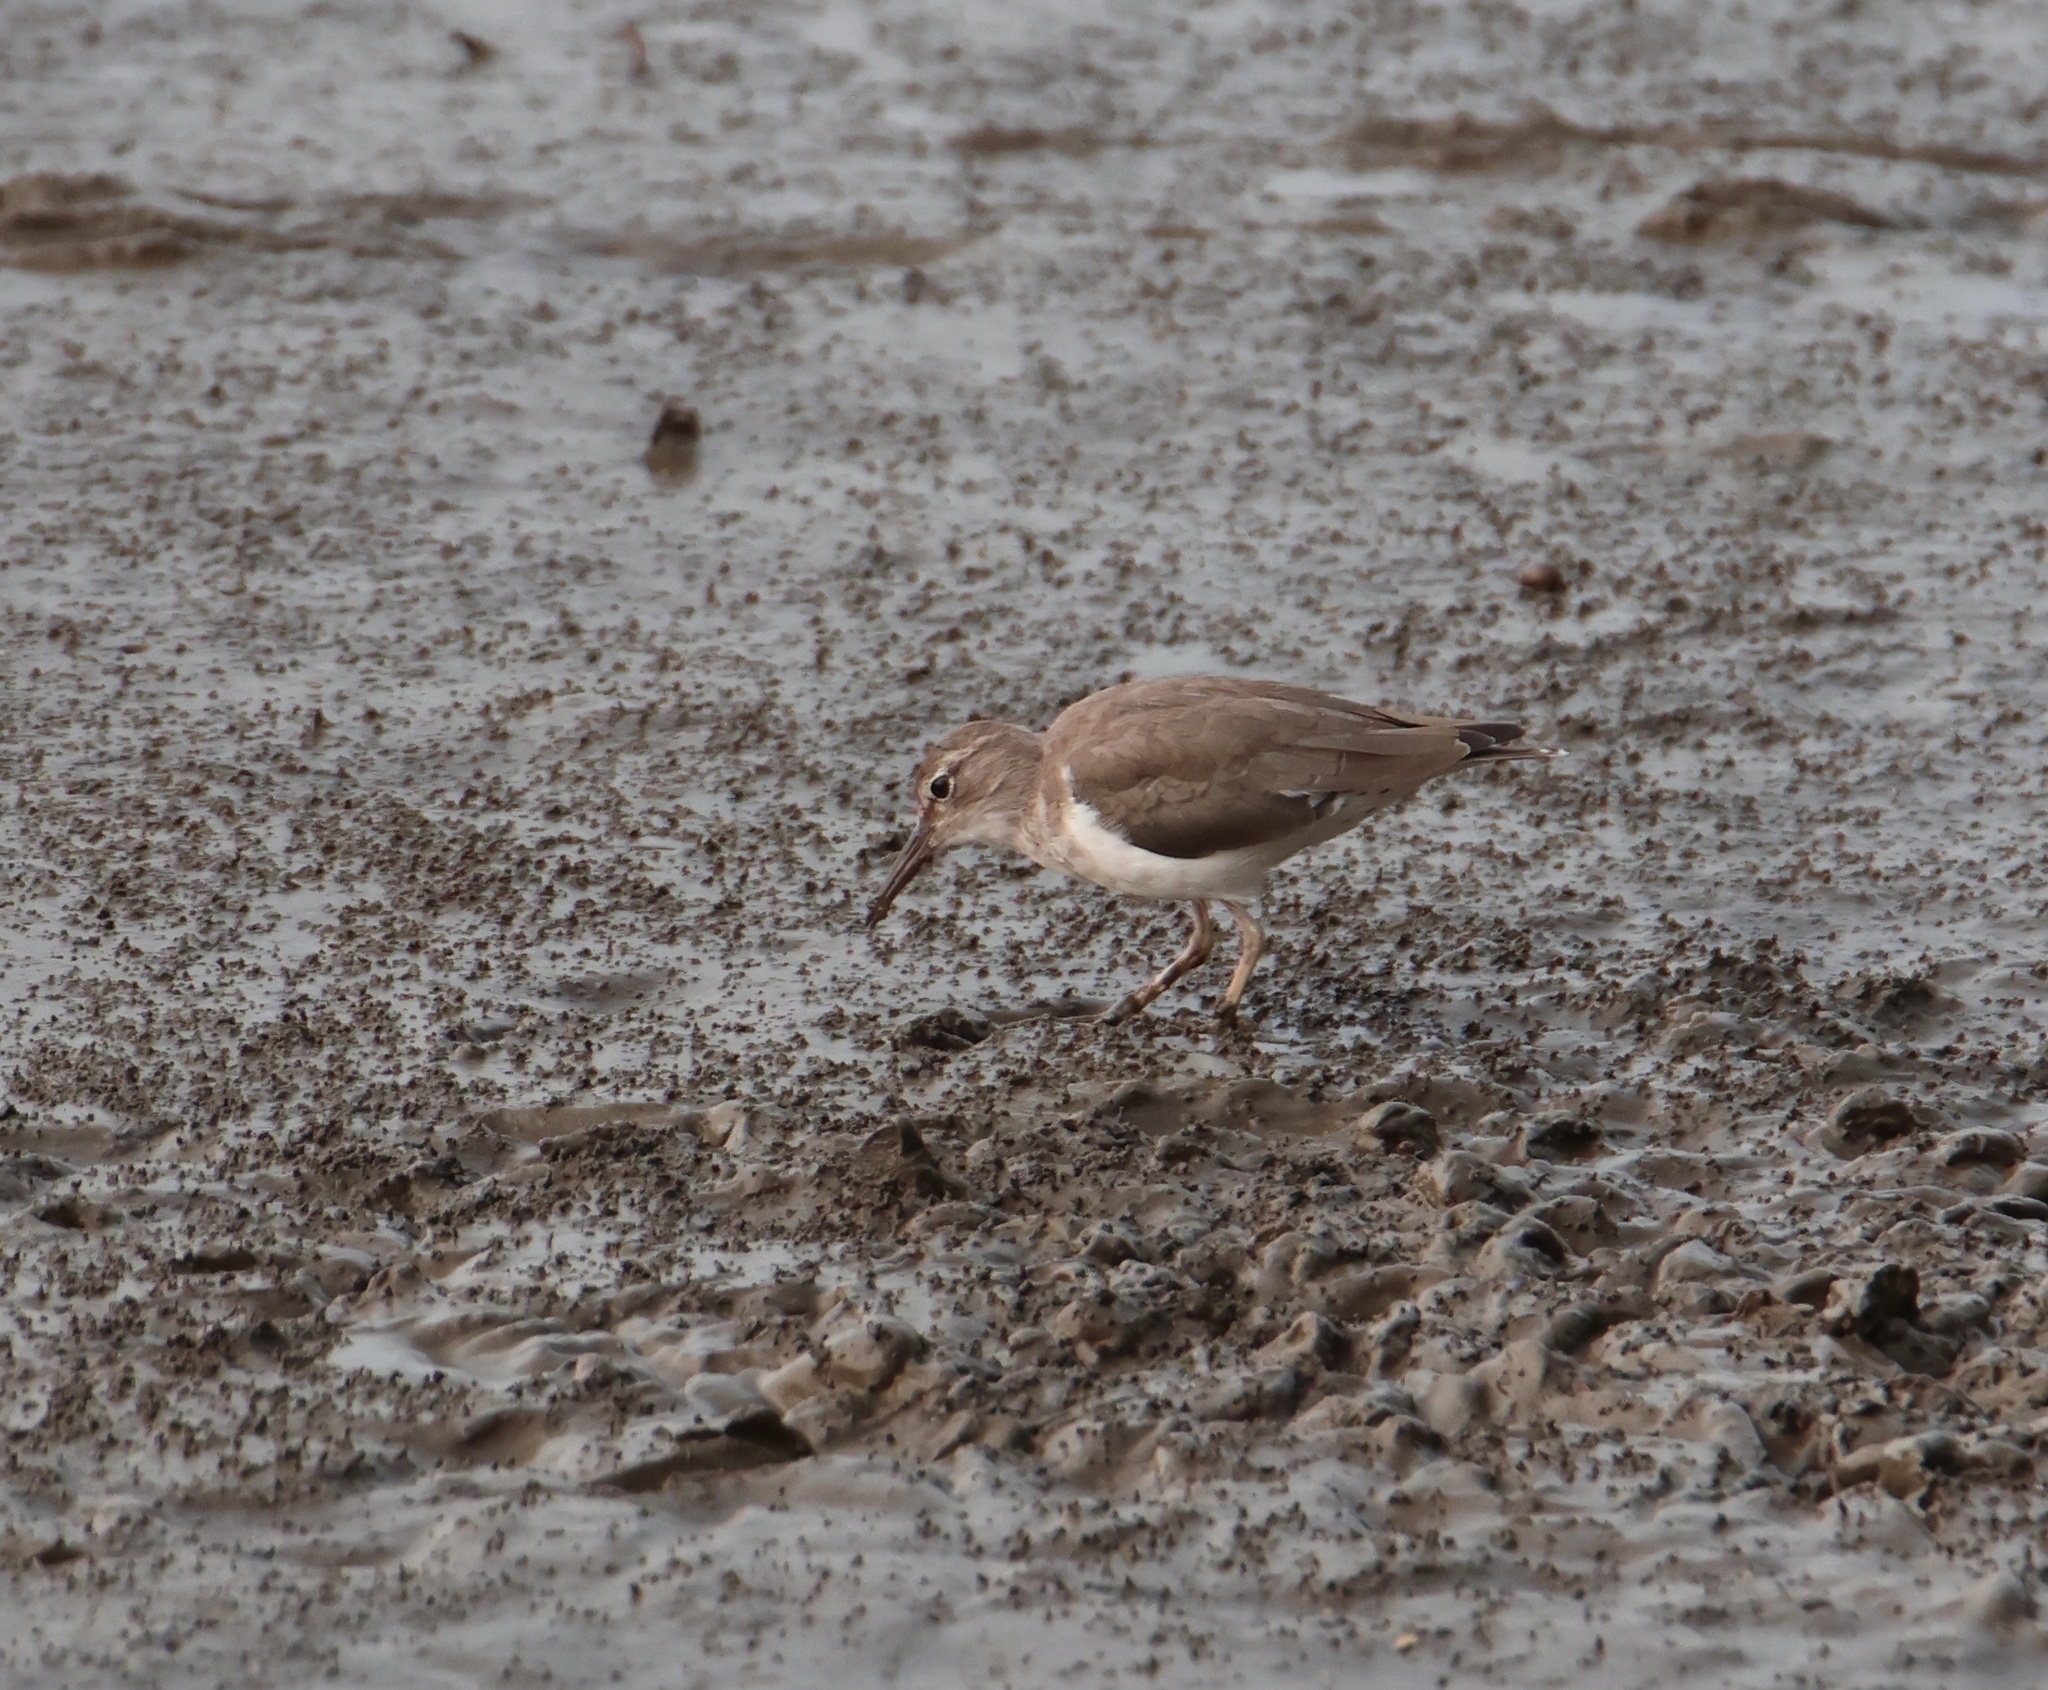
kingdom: Animalia
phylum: Chordata
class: Aves
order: Charadriiformes
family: Scolopacidae
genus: Actitis
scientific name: Actitis macularius
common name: Spotted sandpiper
